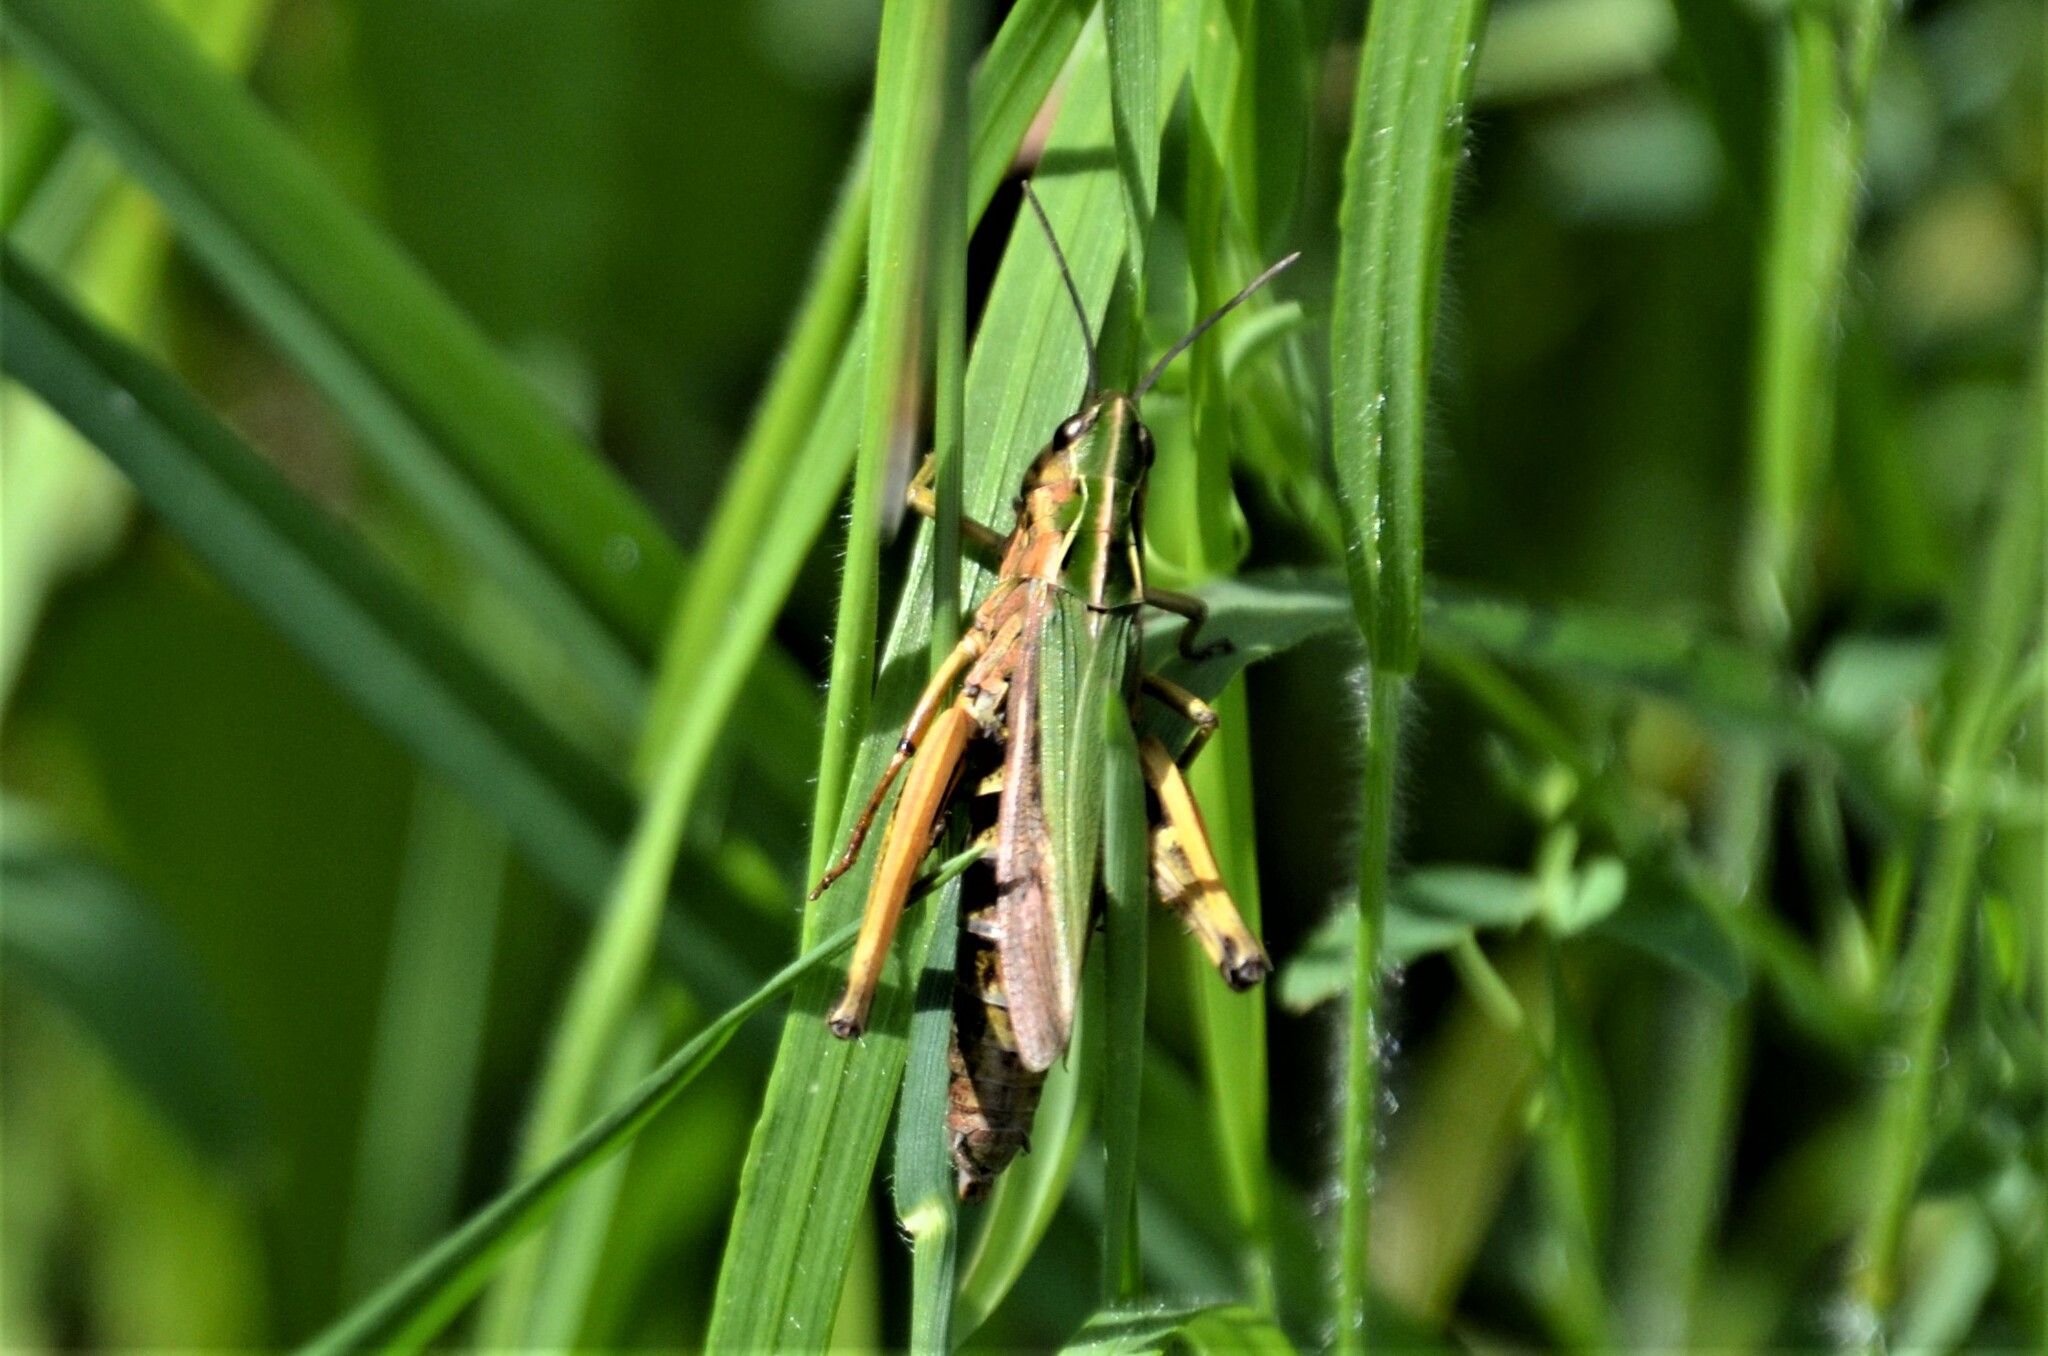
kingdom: Animalia
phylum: Arthropoda
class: Insecta
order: Orthoptera
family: Acrididae
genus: Omocestus
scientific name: Omocestus viridulus
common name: Common green grasshopper
